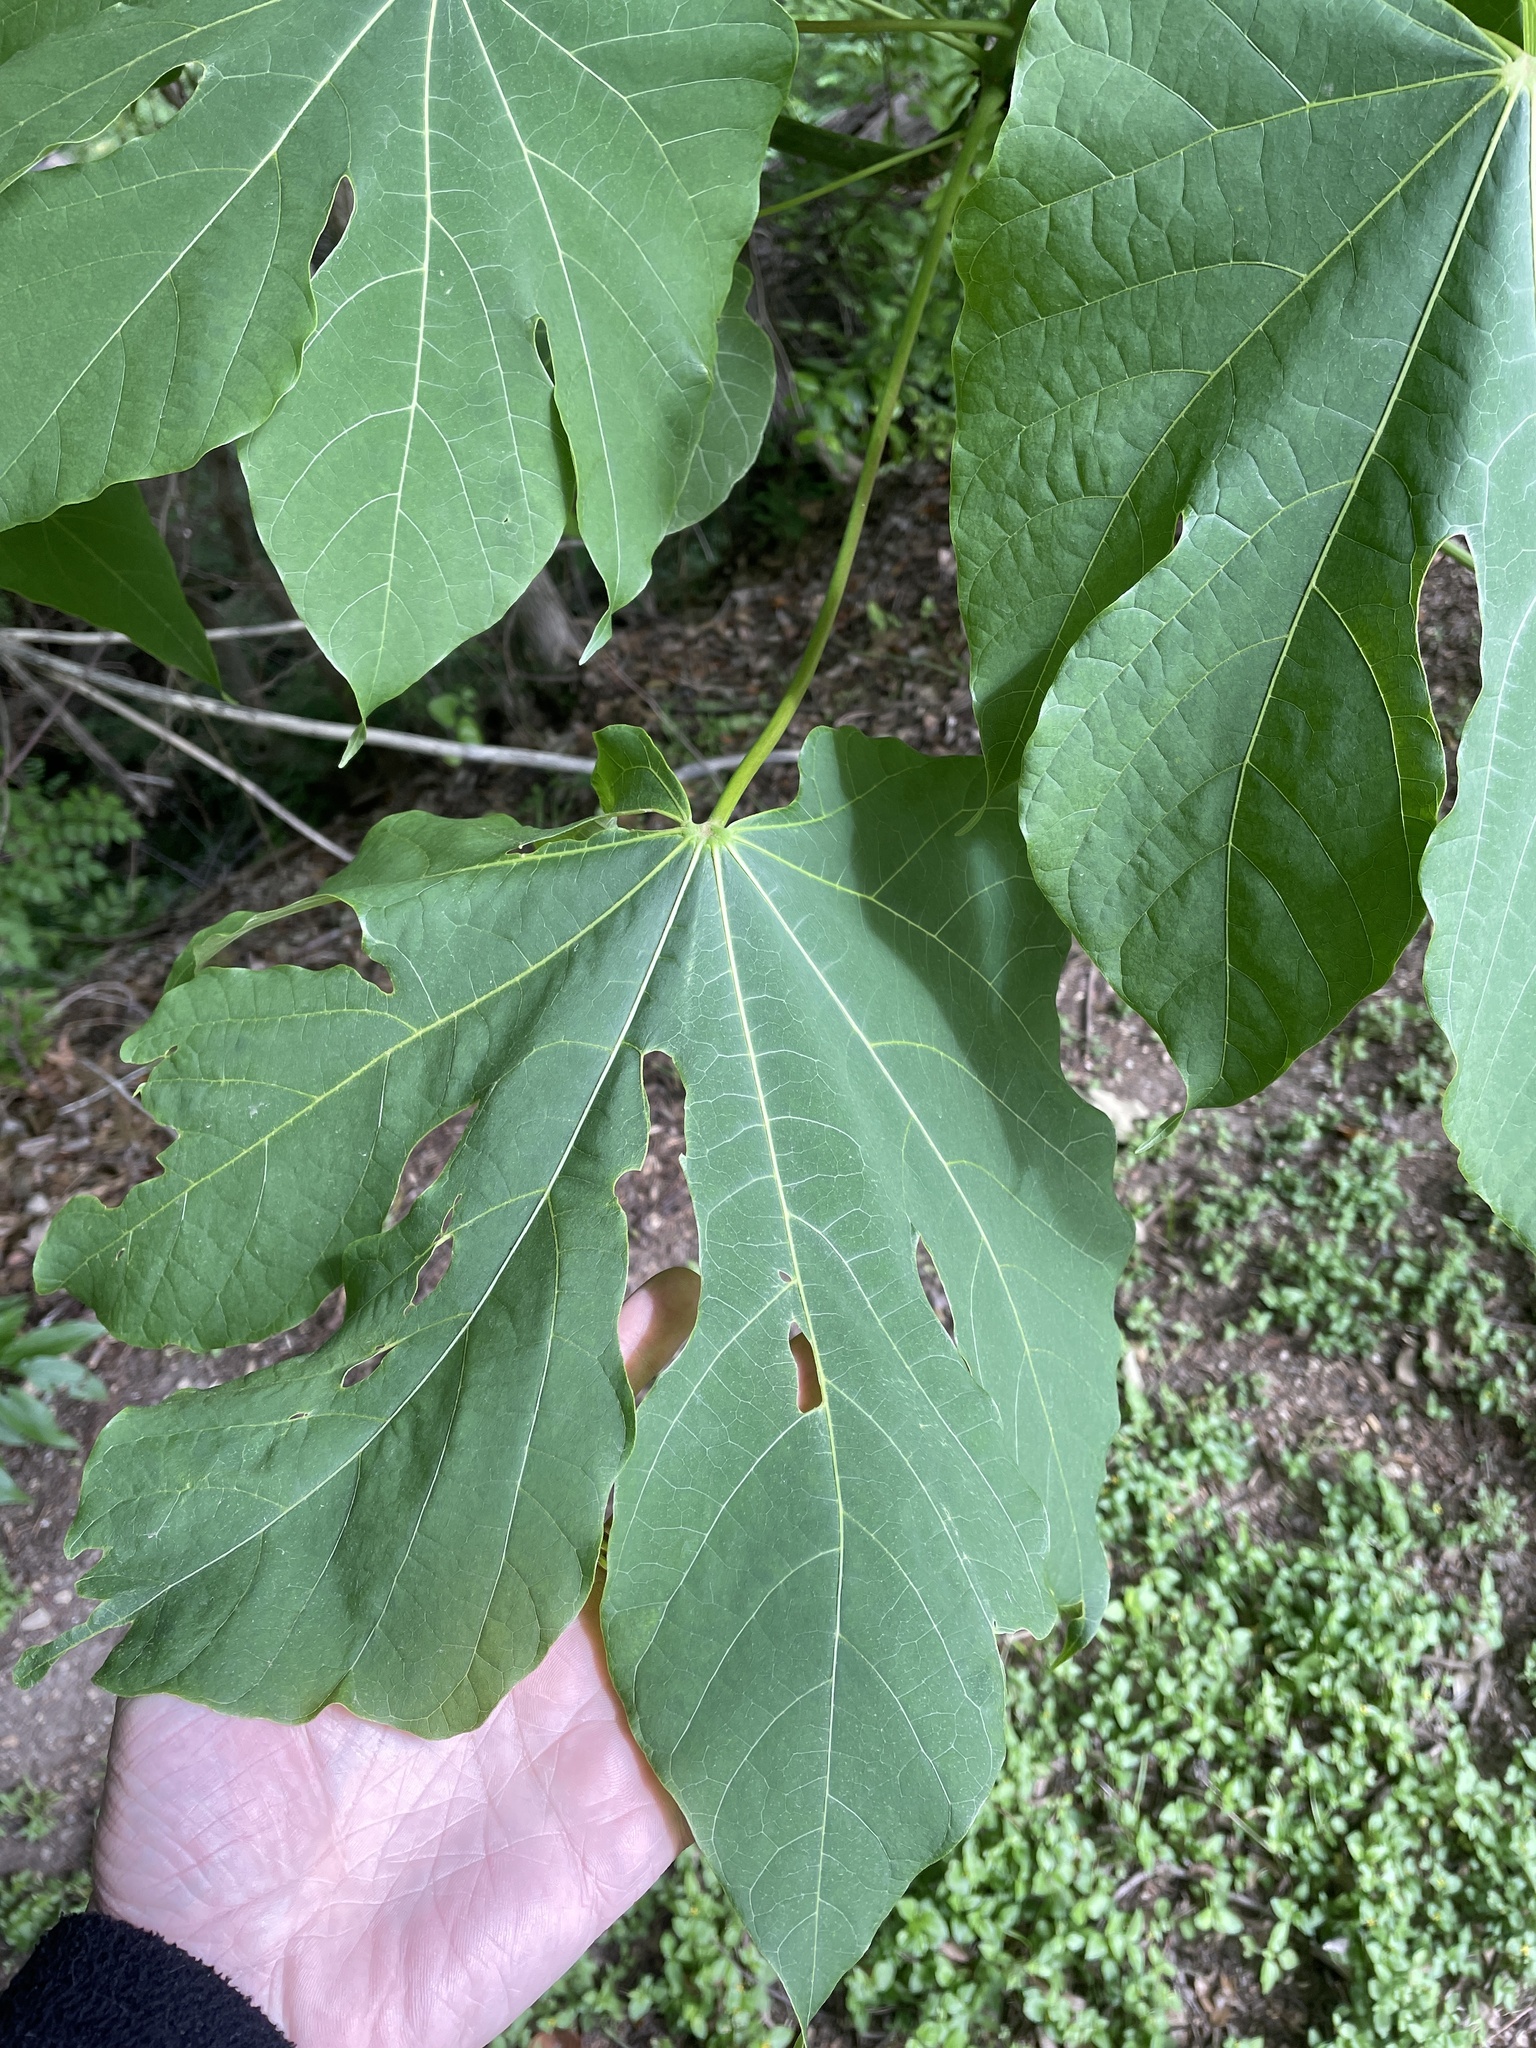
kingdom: Plantae
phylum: Tracheophyta
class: Magnoliopsida
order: Malvales
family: Malvaceae
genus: Firmiana
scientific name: Firmiana simplex
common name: Chinese parasoltree
